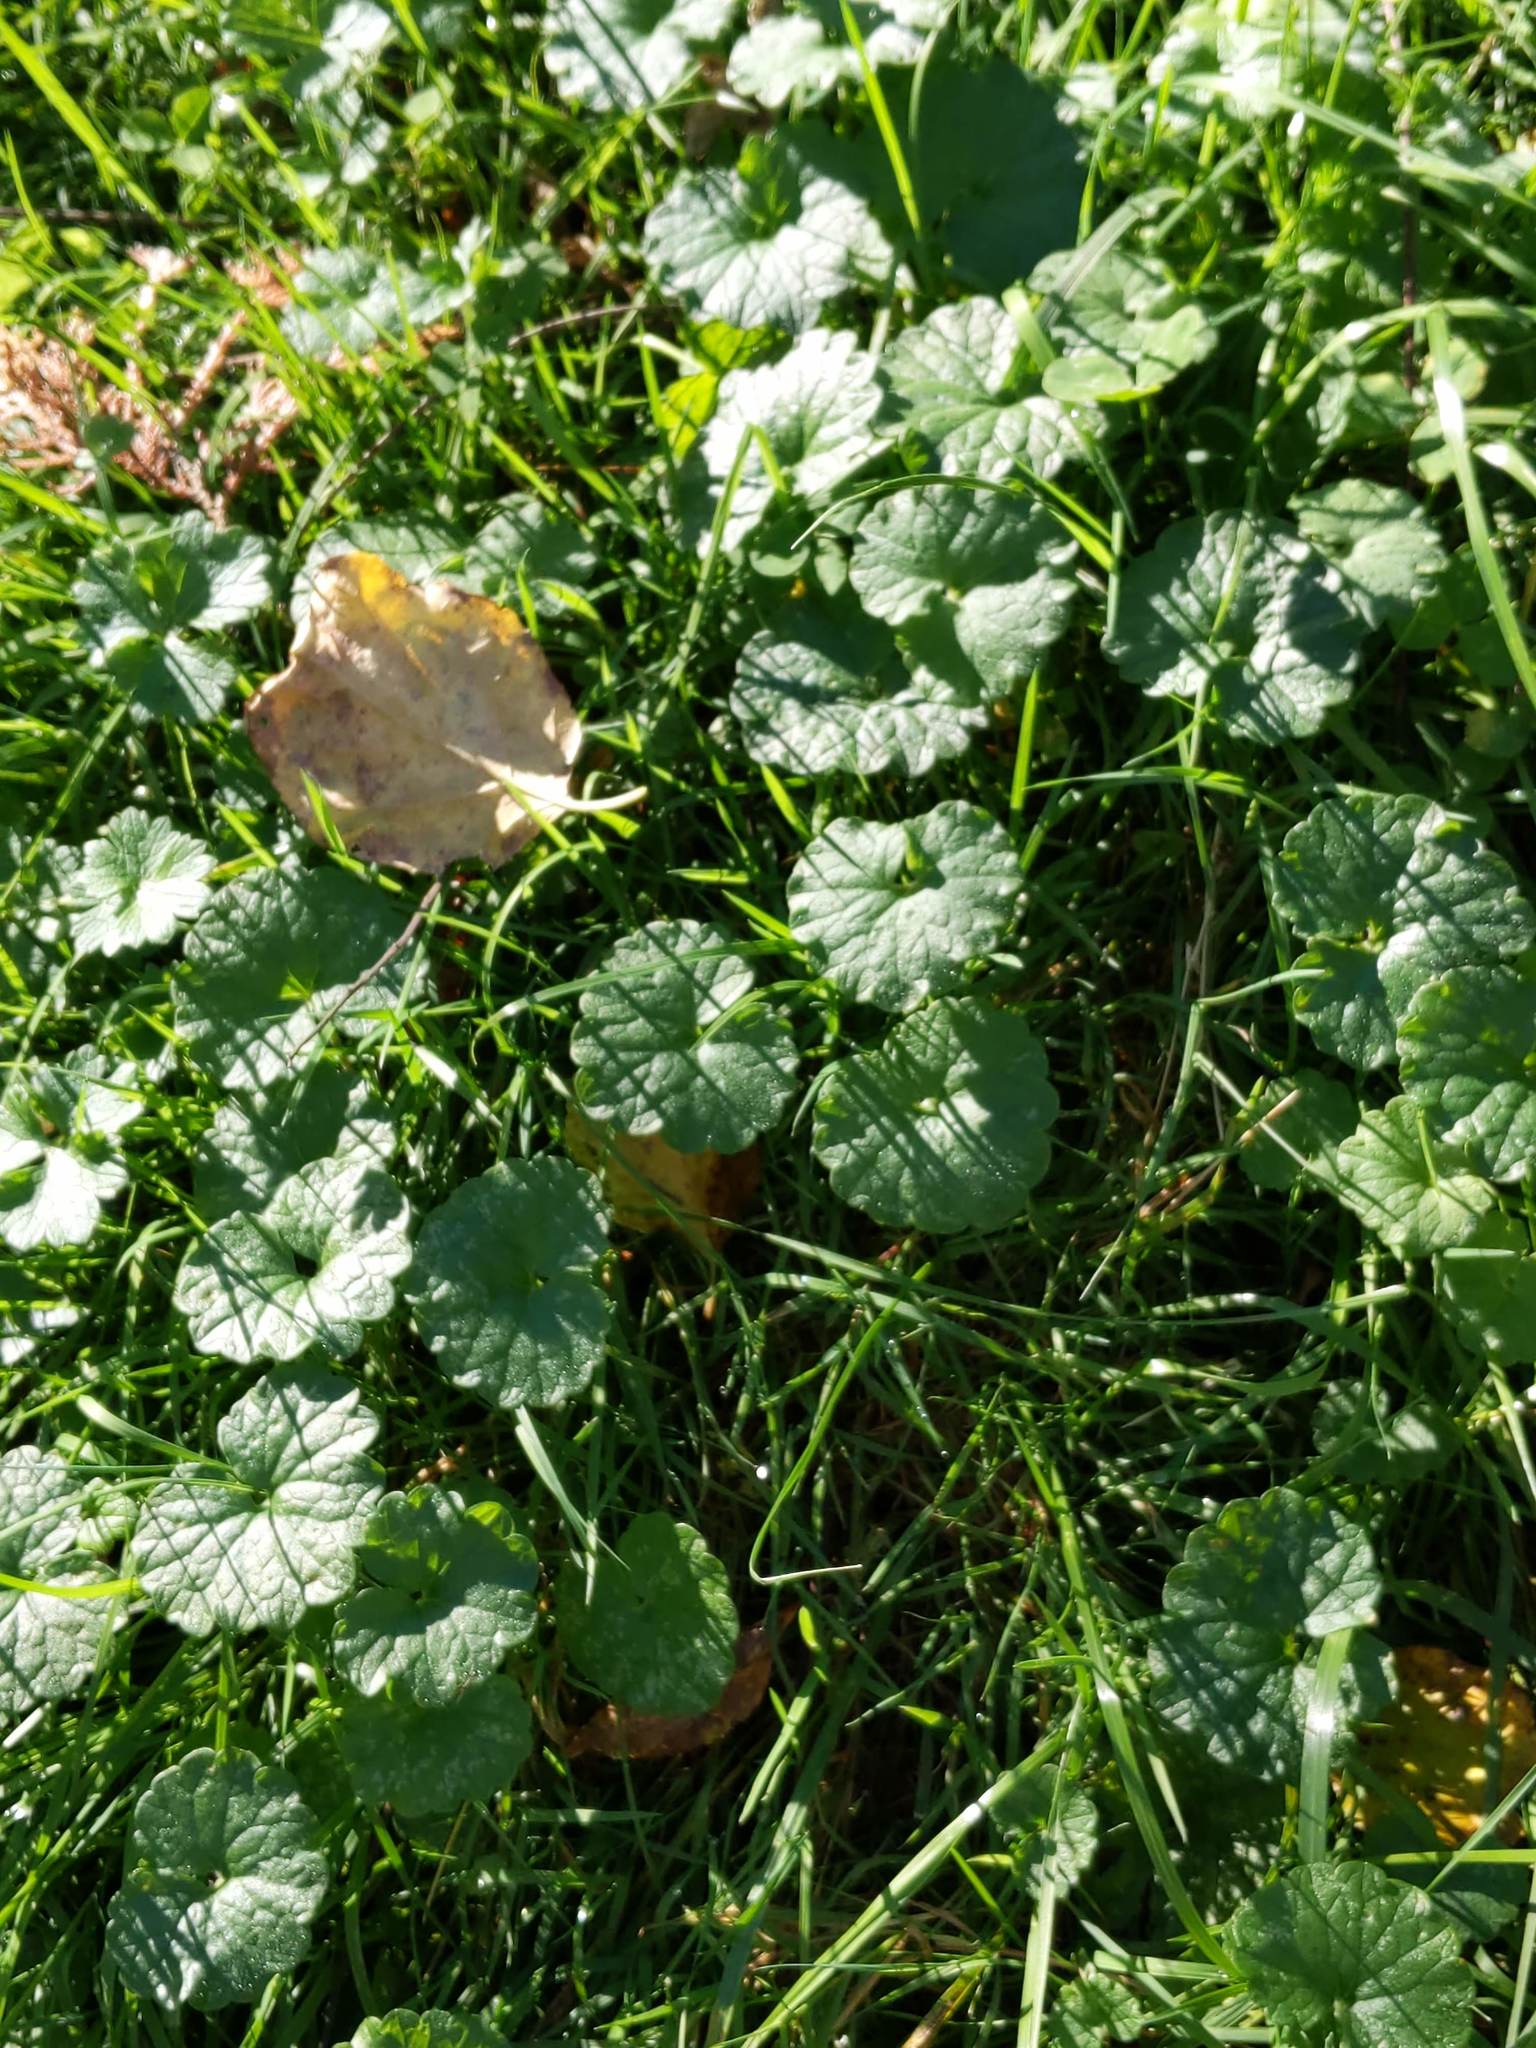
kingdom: Plantae
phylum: Tracheophyta
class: Magnoliopsida
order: Lamiales
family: Lamiaceae
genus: Glechoma
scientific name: Glechoma hederacea
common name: Ground ivy
